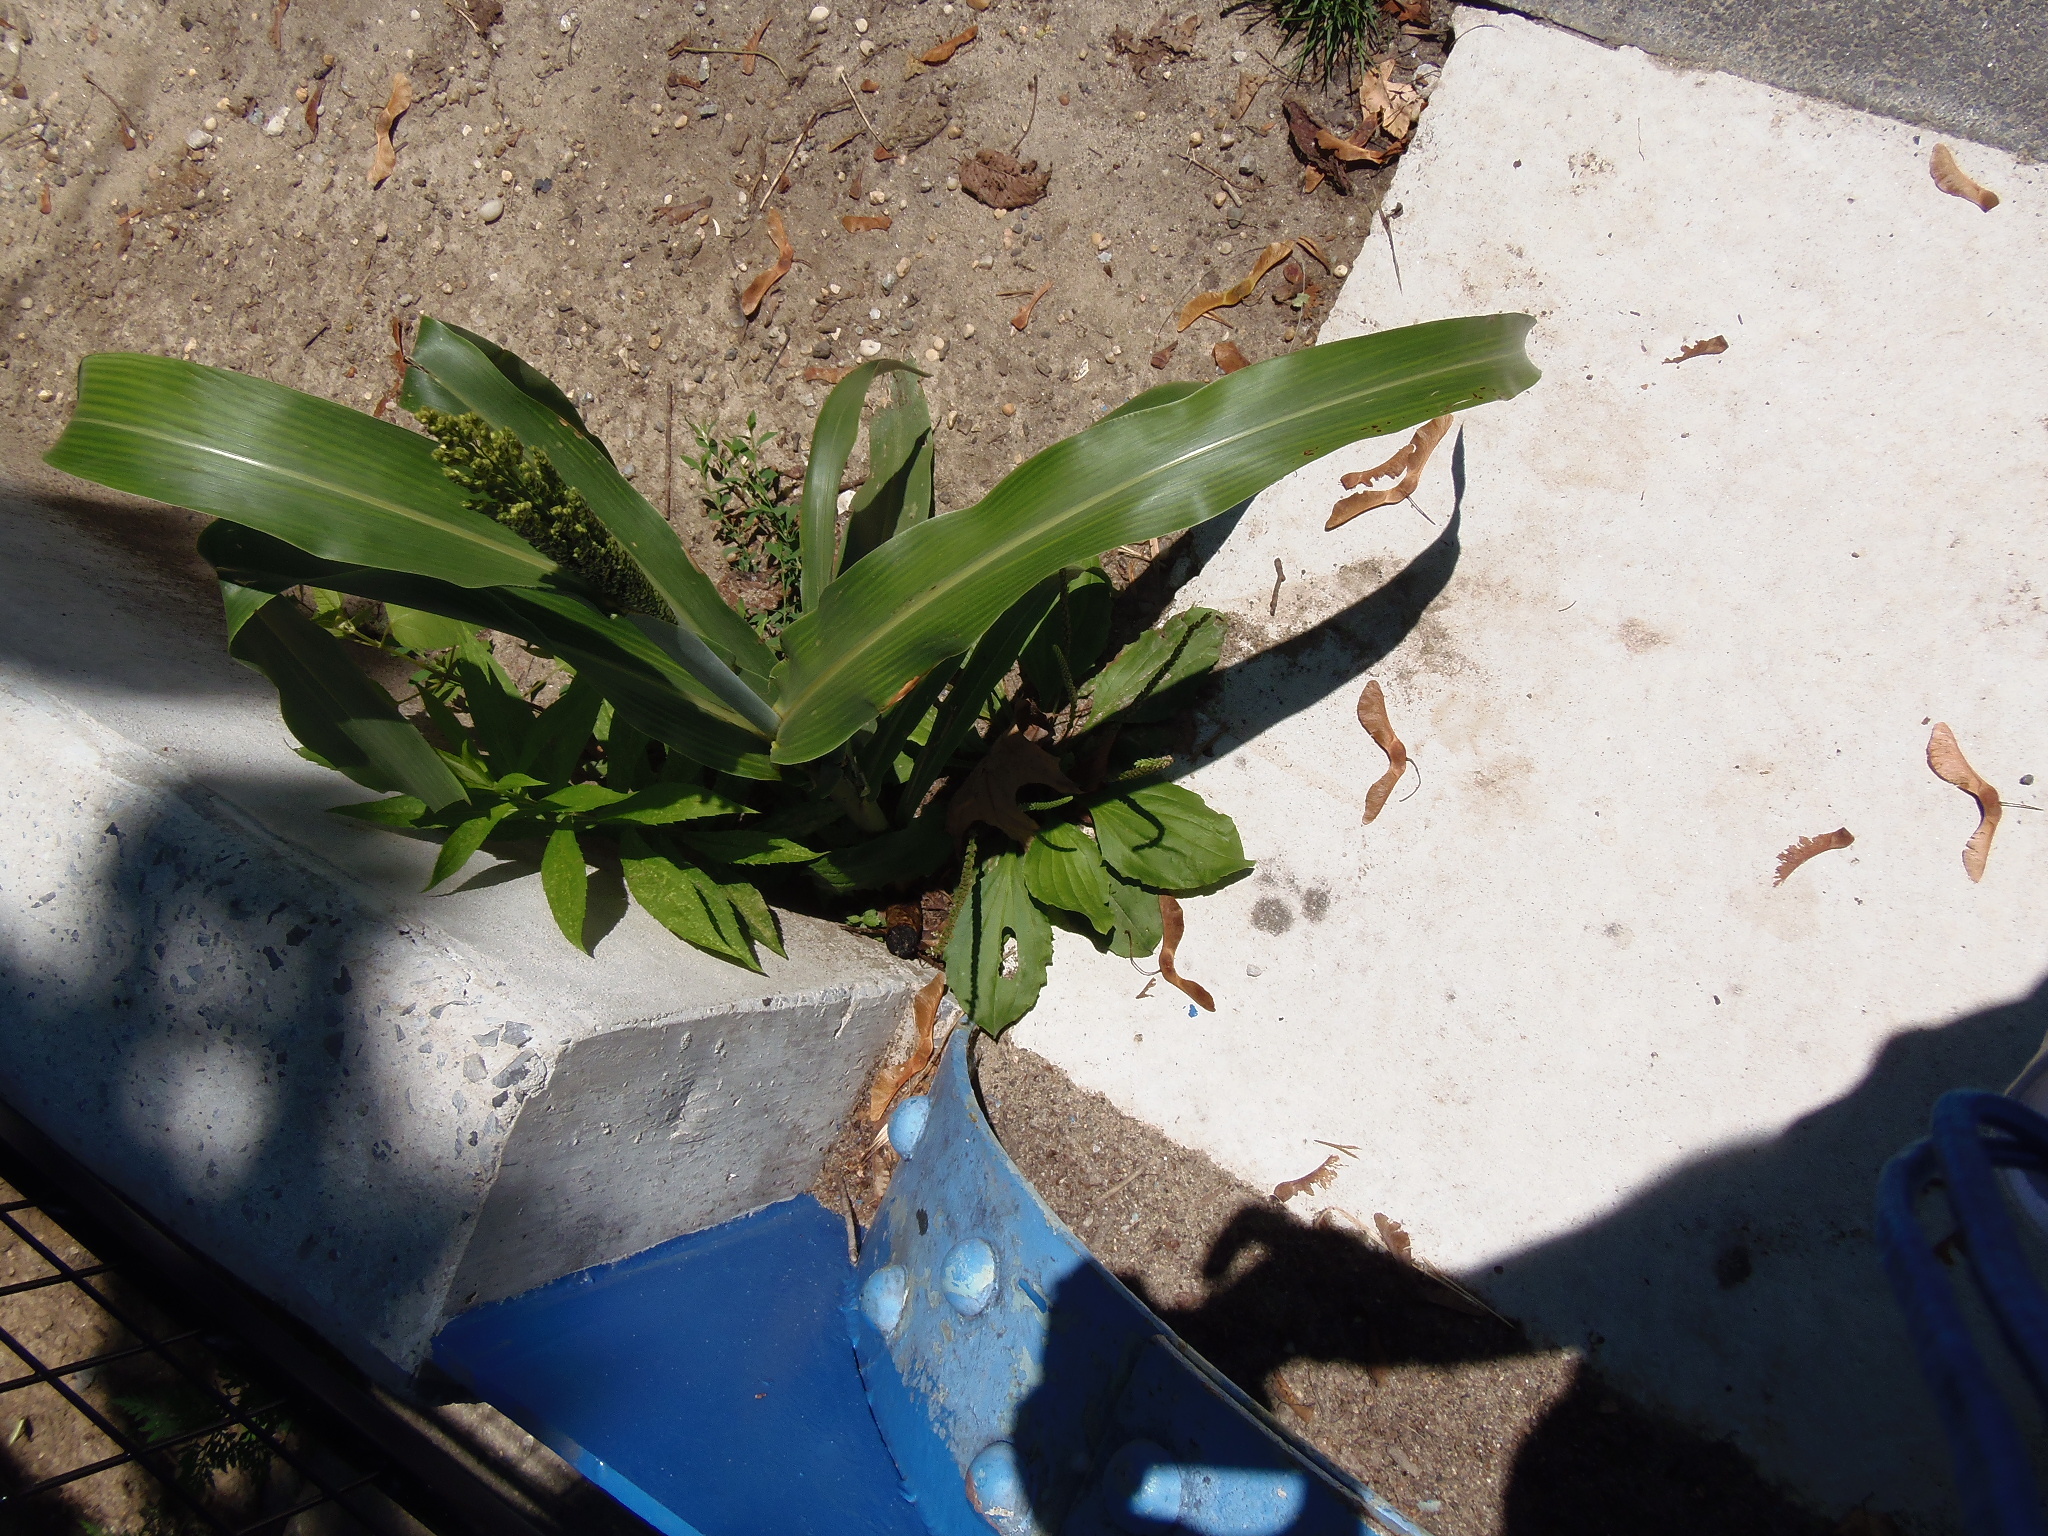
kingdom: Plantae
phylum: Tracheophyta
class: Liliopsida
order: Poales
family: Poaceae
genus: Sorghum
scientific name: Sorghum bicolor
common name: Sorghum
